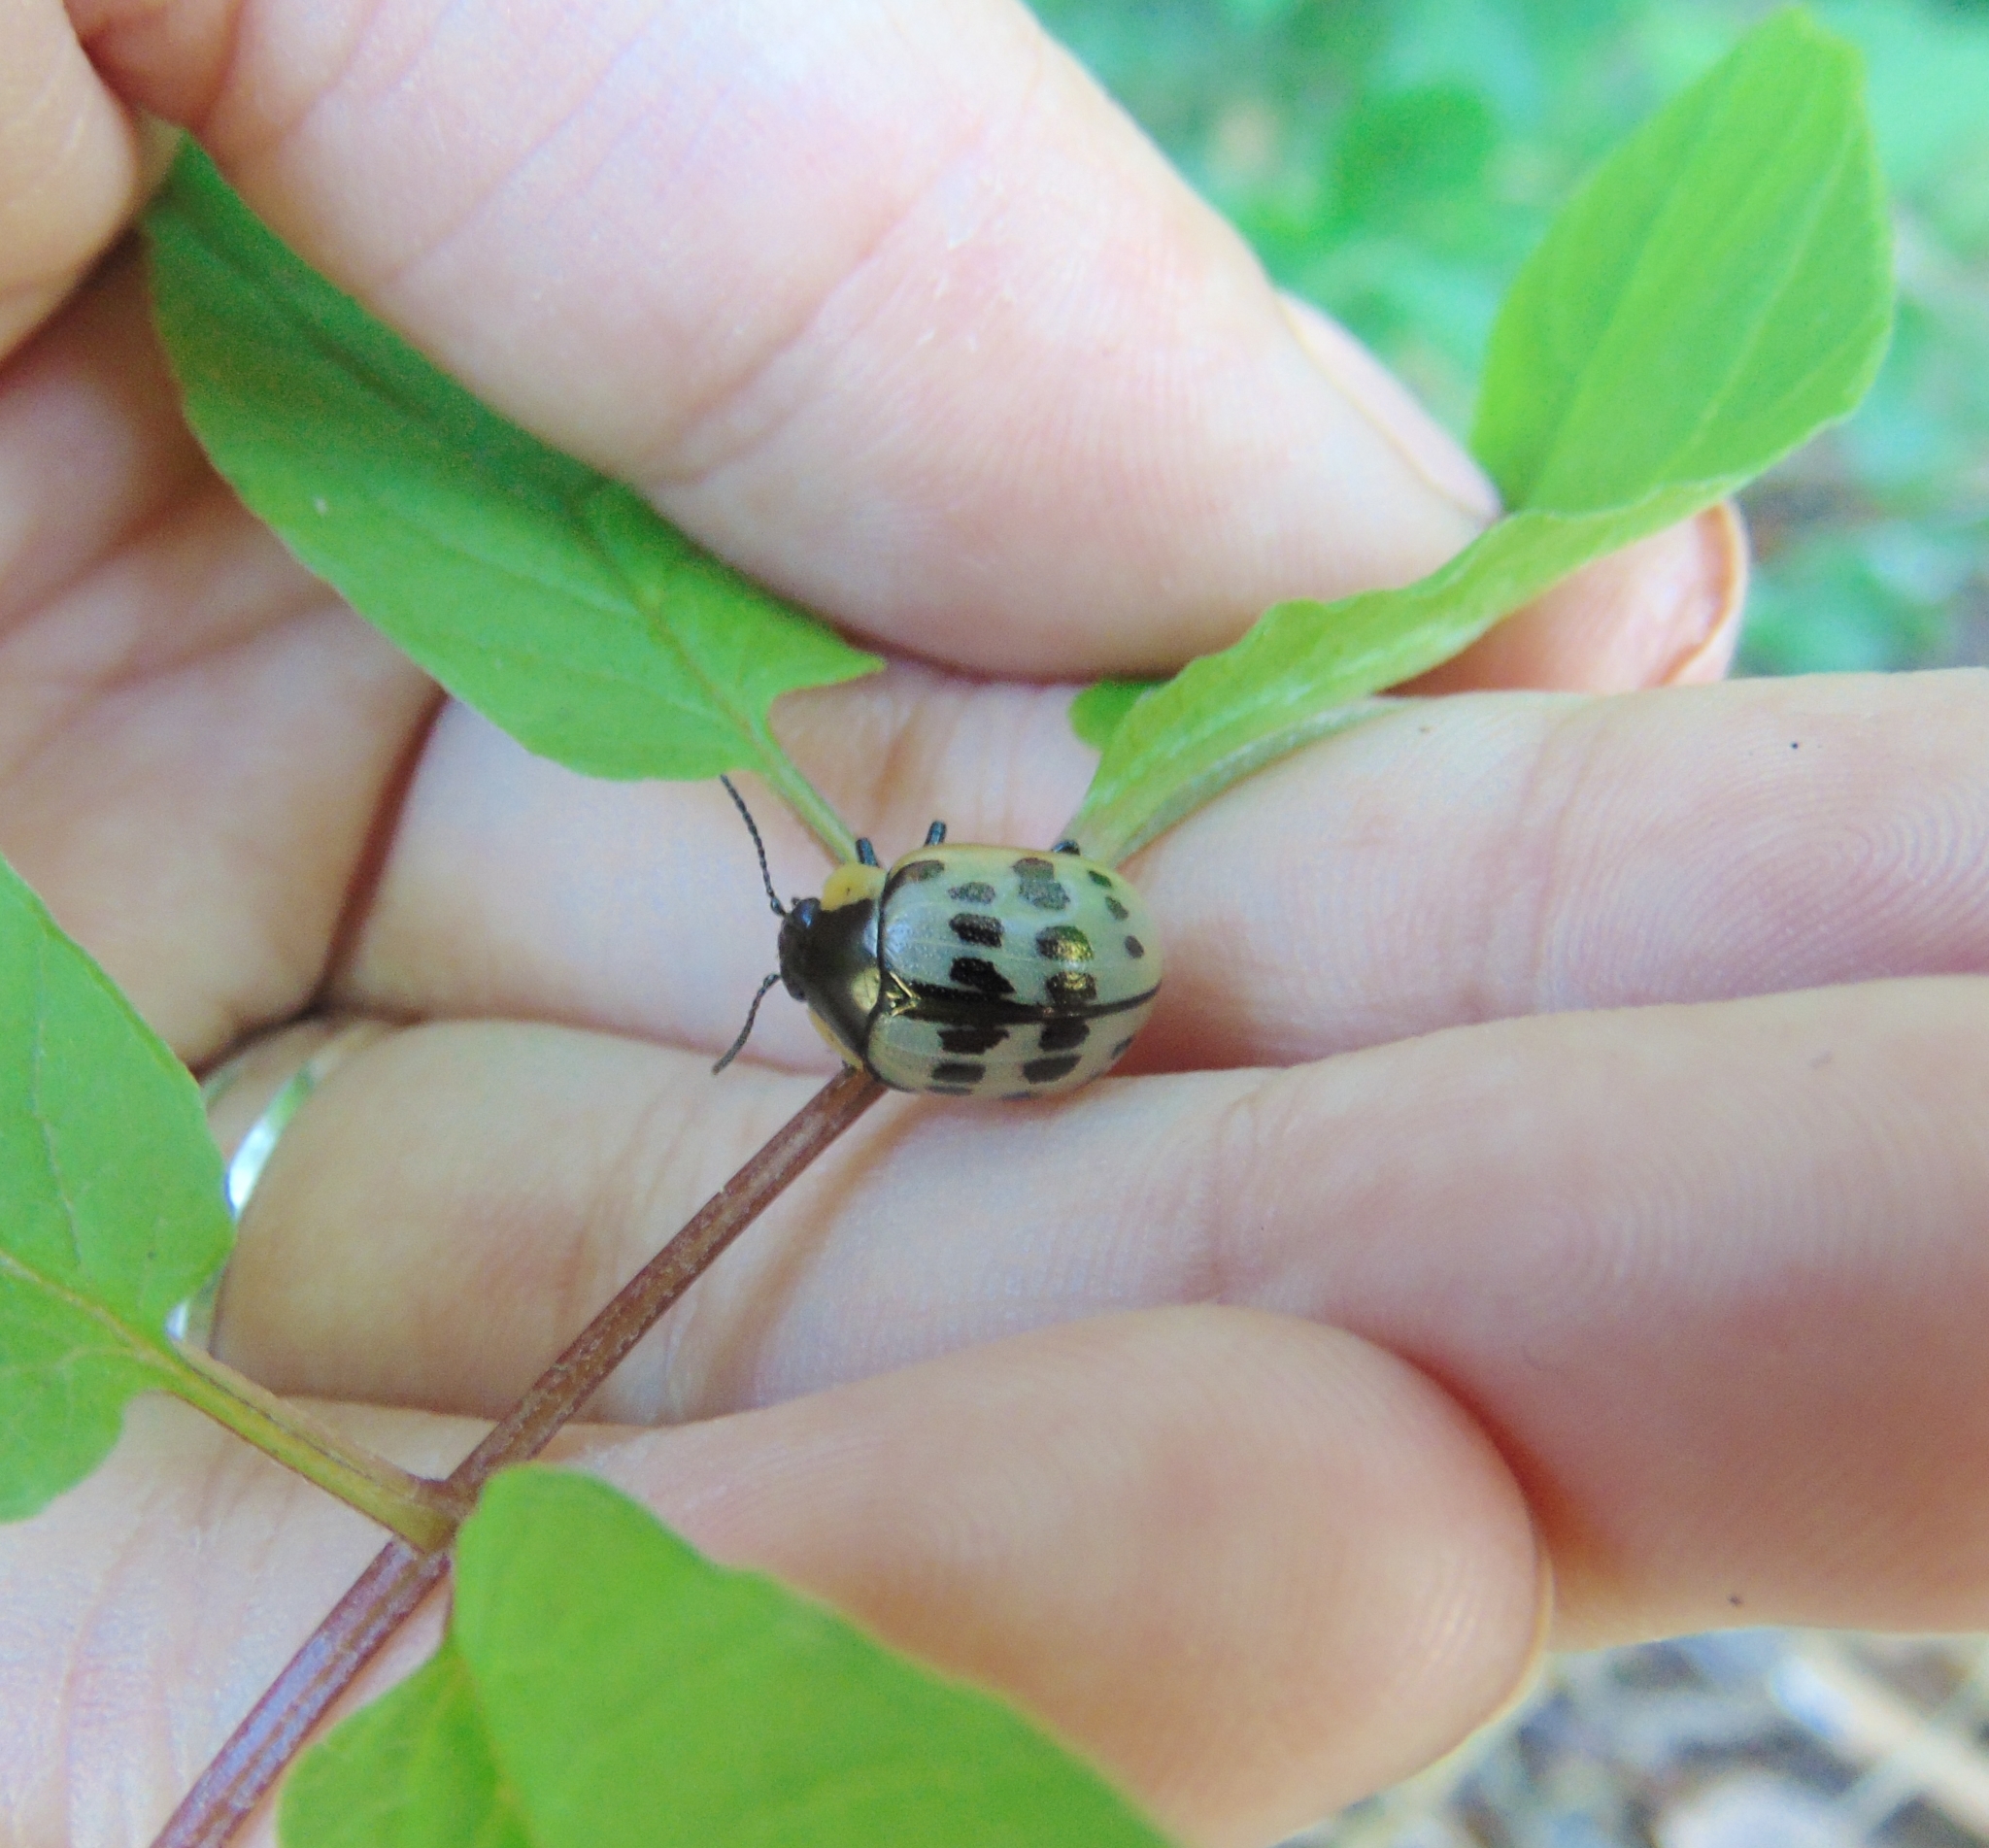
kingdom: Animalia
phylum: Arthropoda
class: Insecta
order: Coleoptera
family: Chrysomelidae
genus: Platyphora
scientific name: Platyphora
